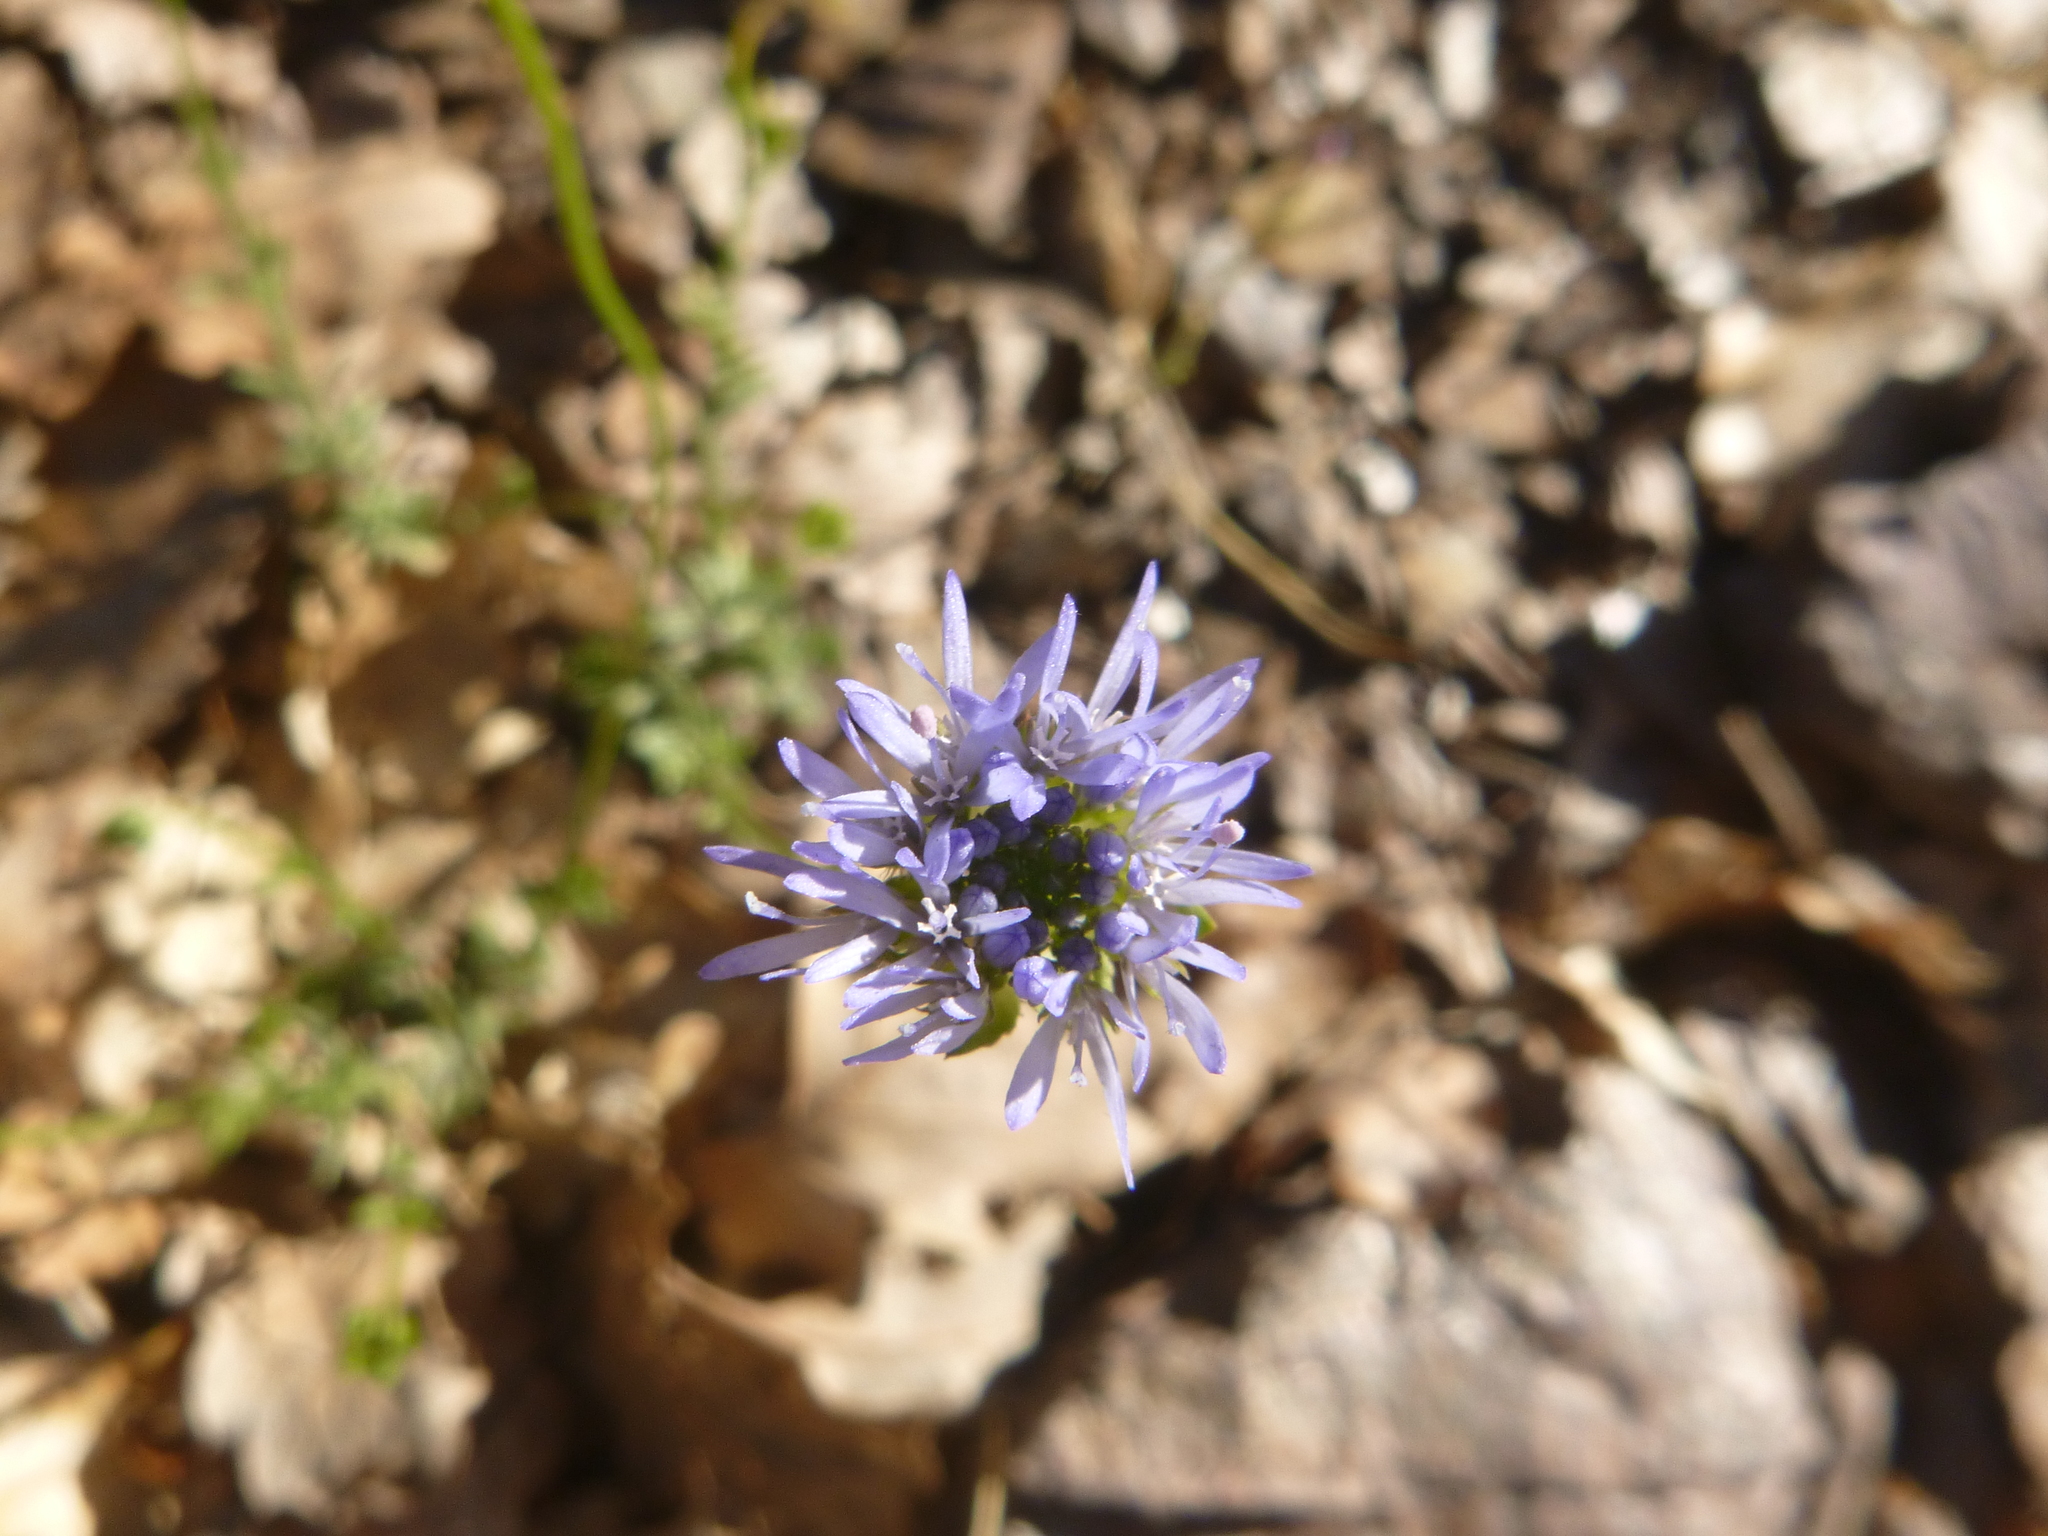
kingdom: Plantae
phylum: Tracheophyta
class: Magnoliopsida
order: Asterales
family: Campanulaceae
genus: Jasione
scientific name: Jasione montana
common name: Sheep's-bit
